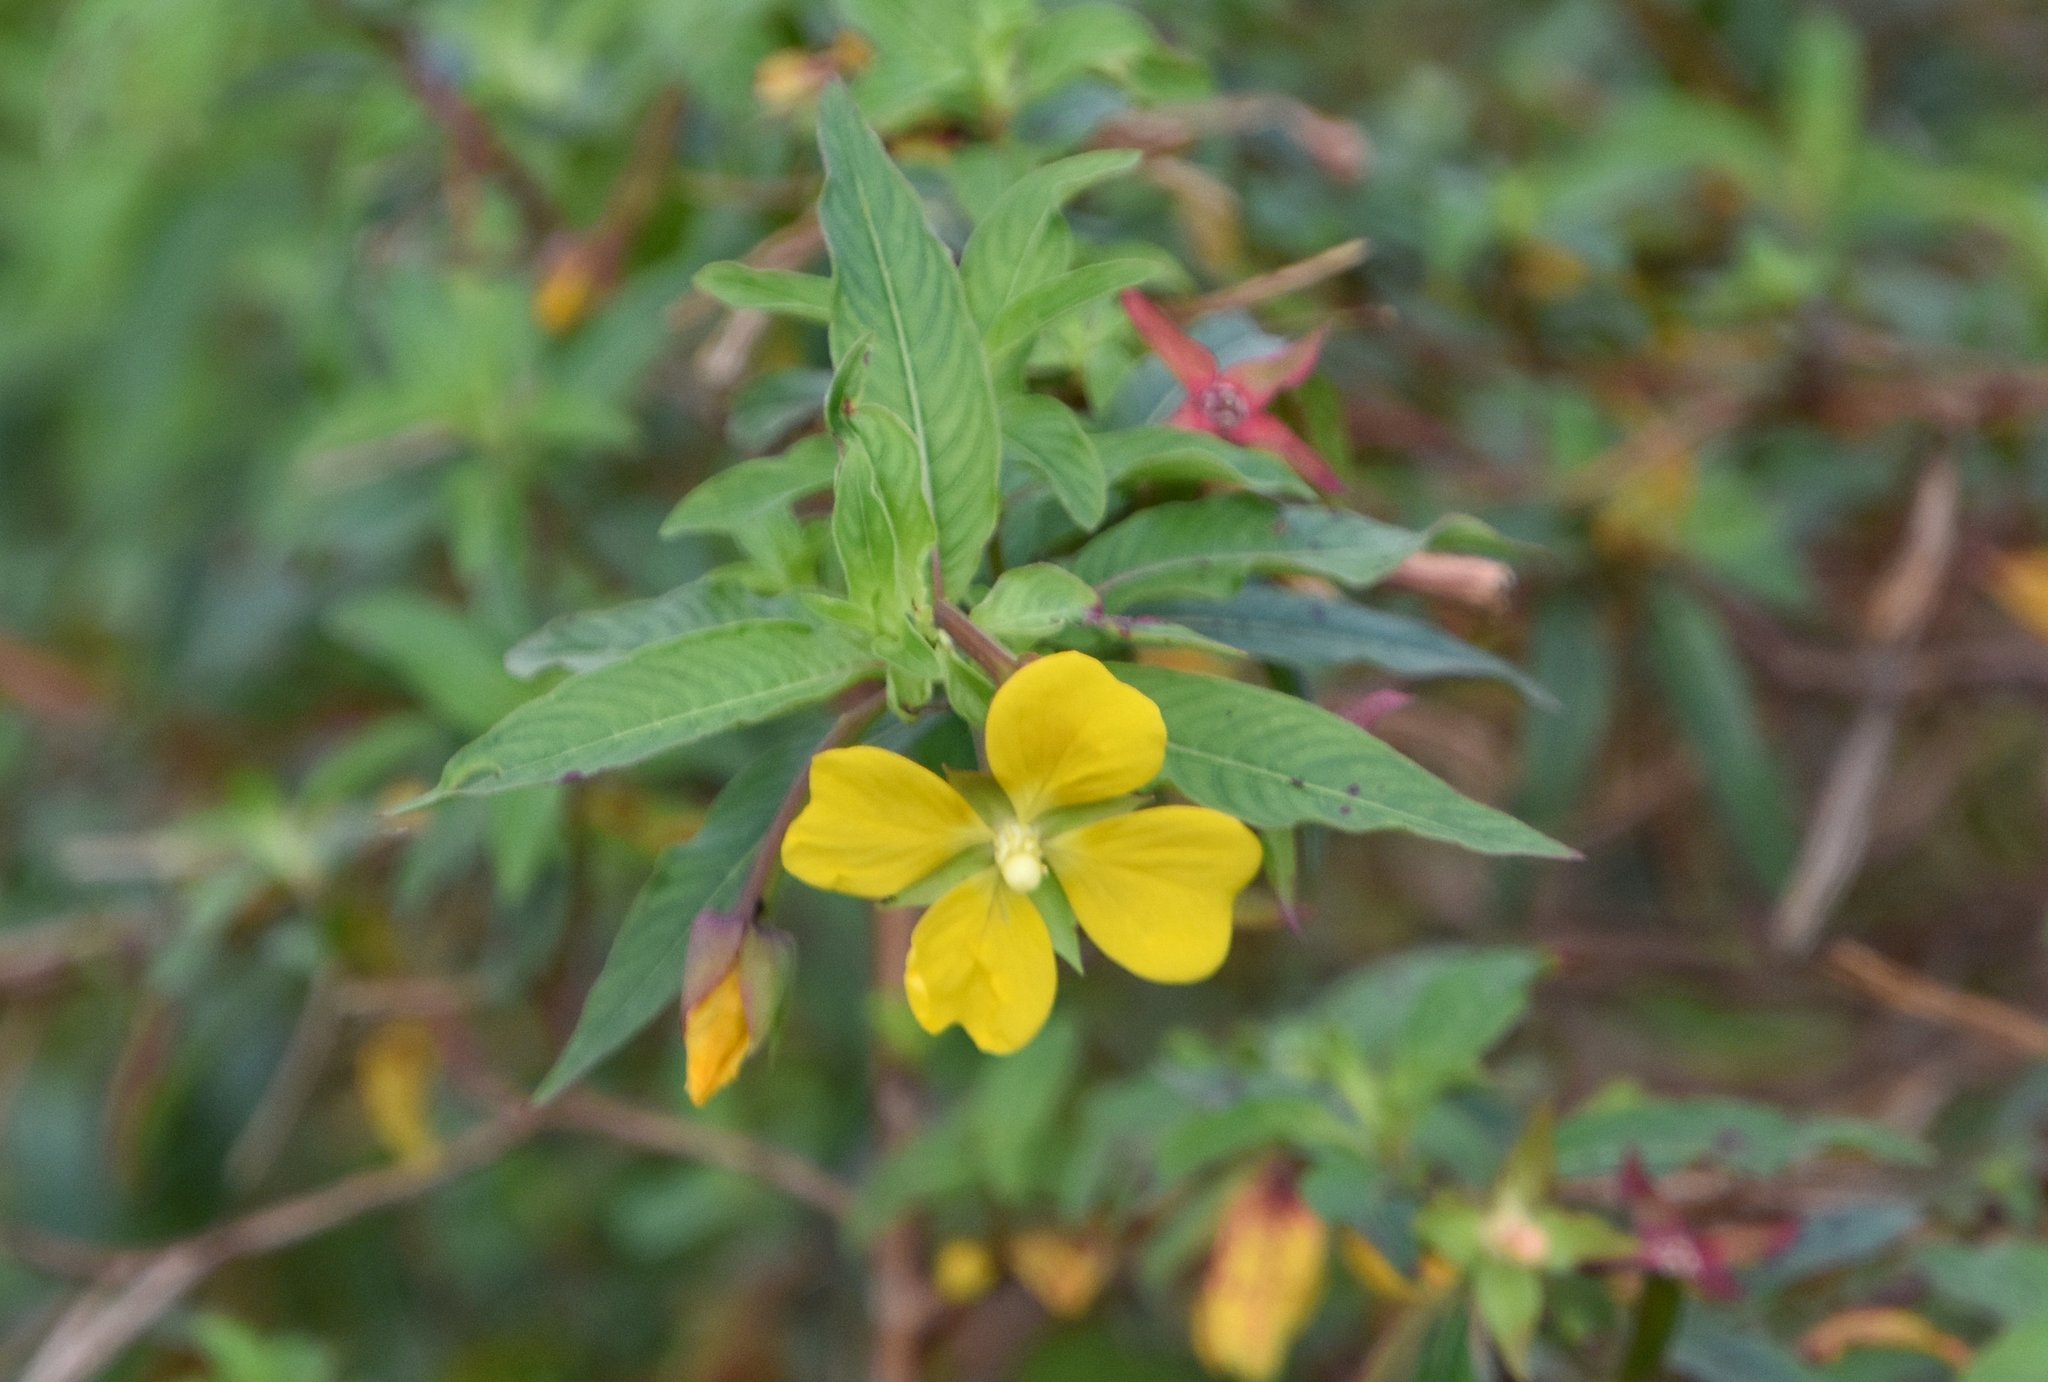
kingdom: Plantae
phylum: Tracheophyta
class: Magnoliopsida
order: Myrtales
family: Onagraceae
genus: Ludwigia
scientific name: Ludwigia octovalvis
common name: Water-primrose
